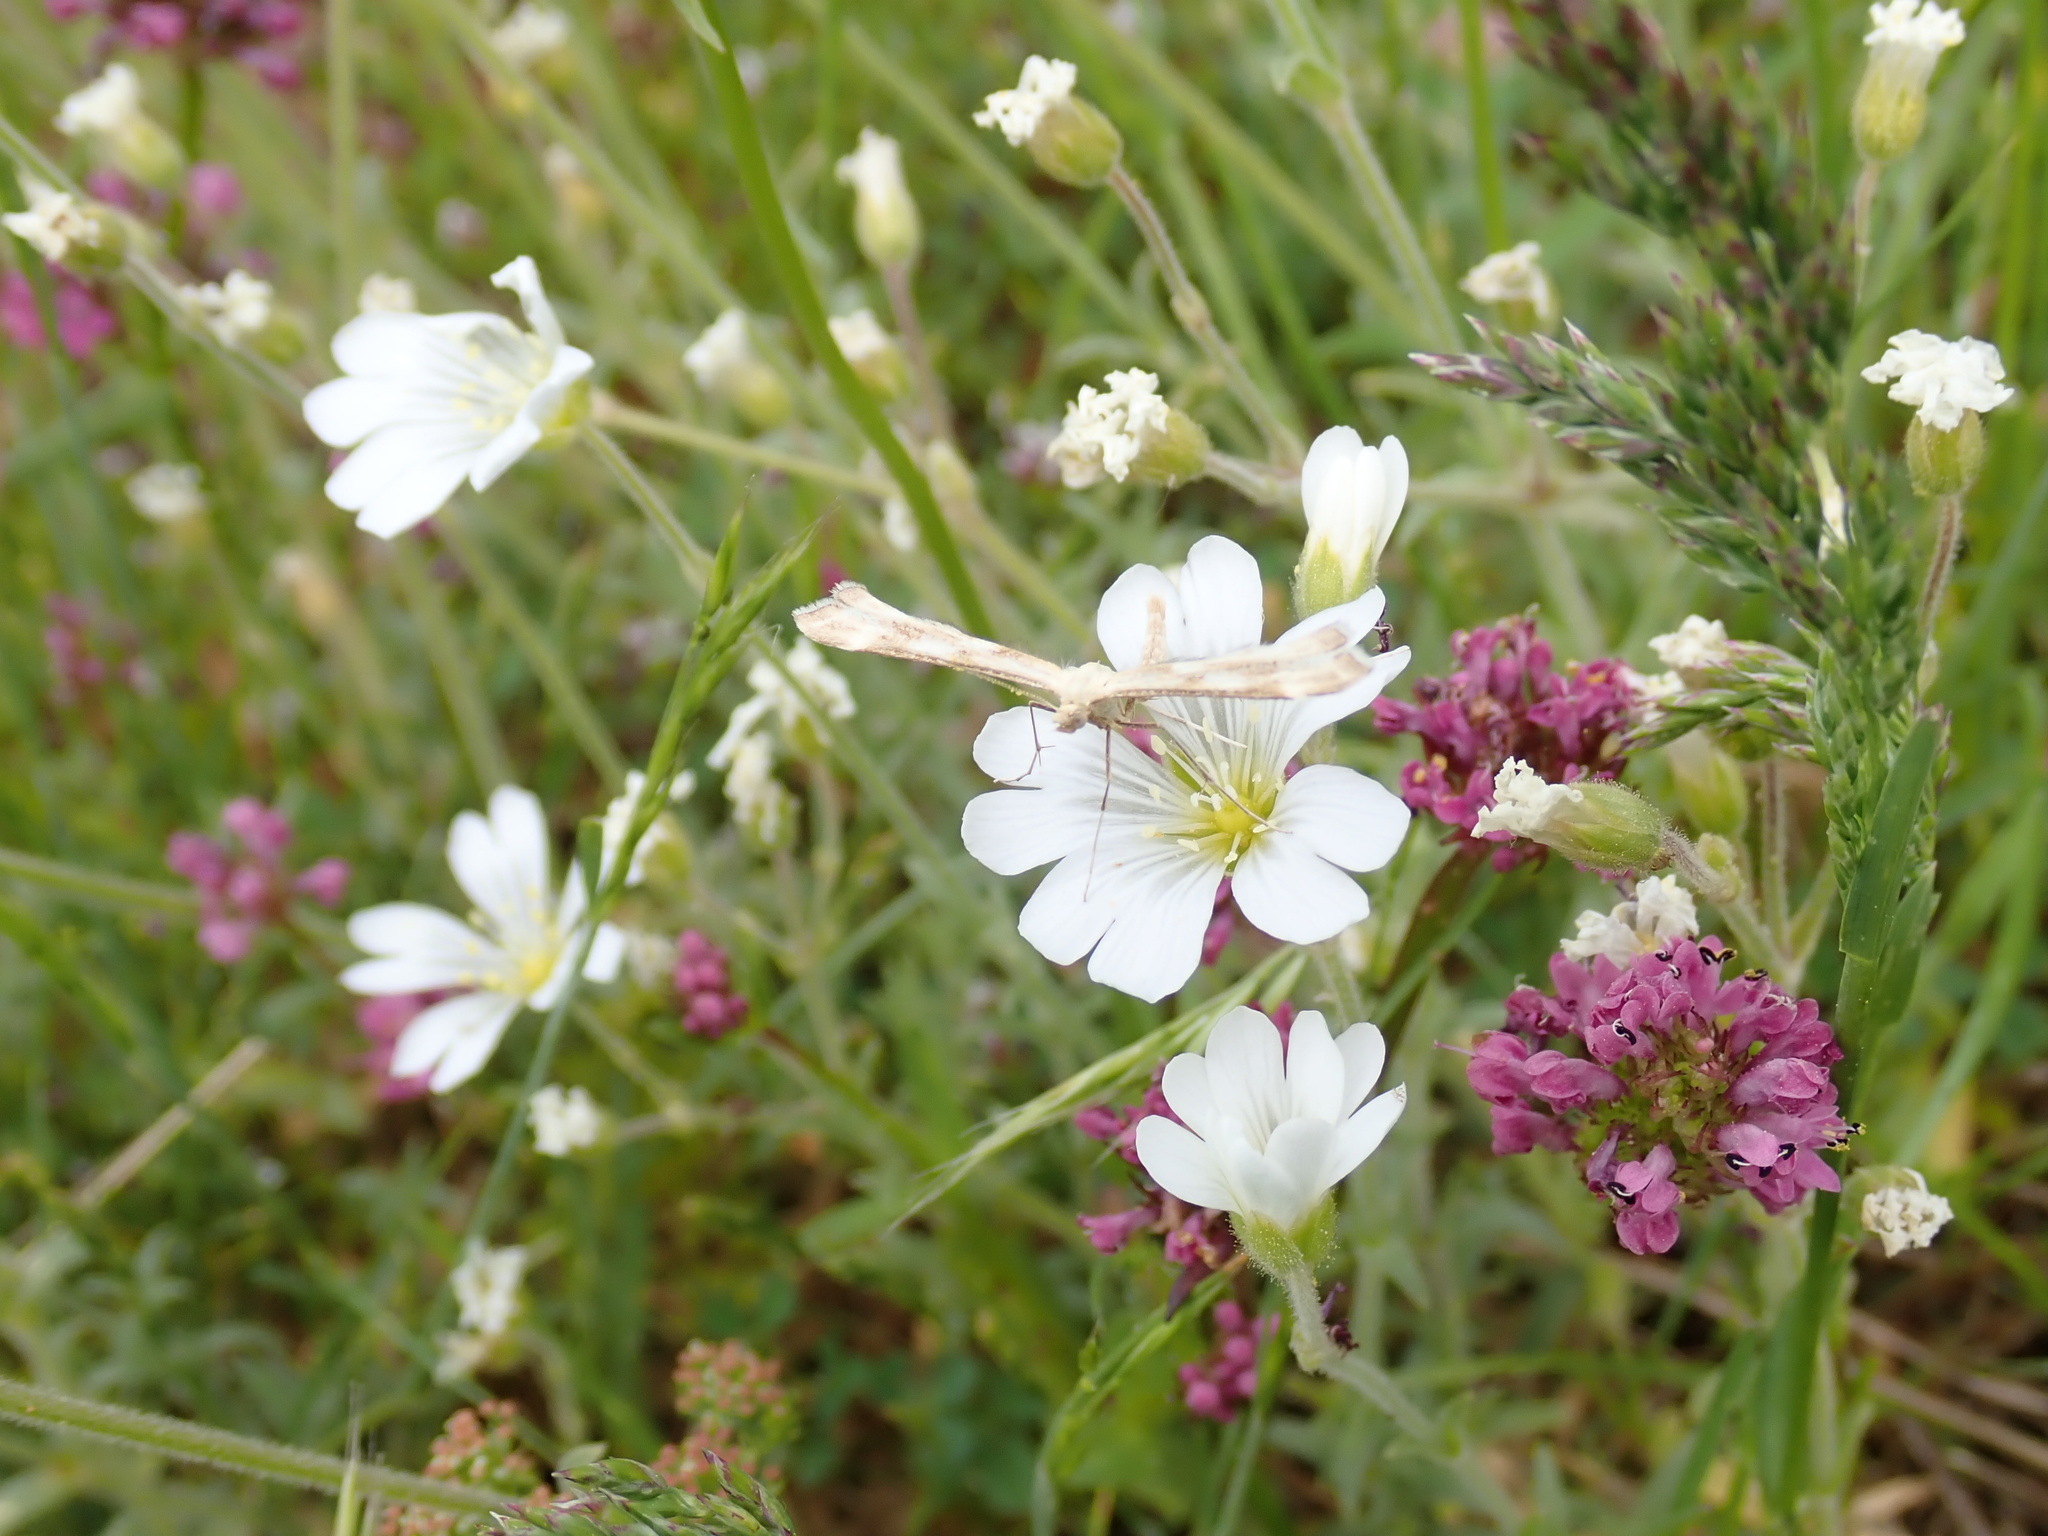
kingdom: Animalia
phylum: Arthropoda
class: Insecta
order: Lepidoptera
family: Pterophoridae
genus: Gillmeria
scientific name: Gillmeria pallidactyla
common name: Yarrow plume
